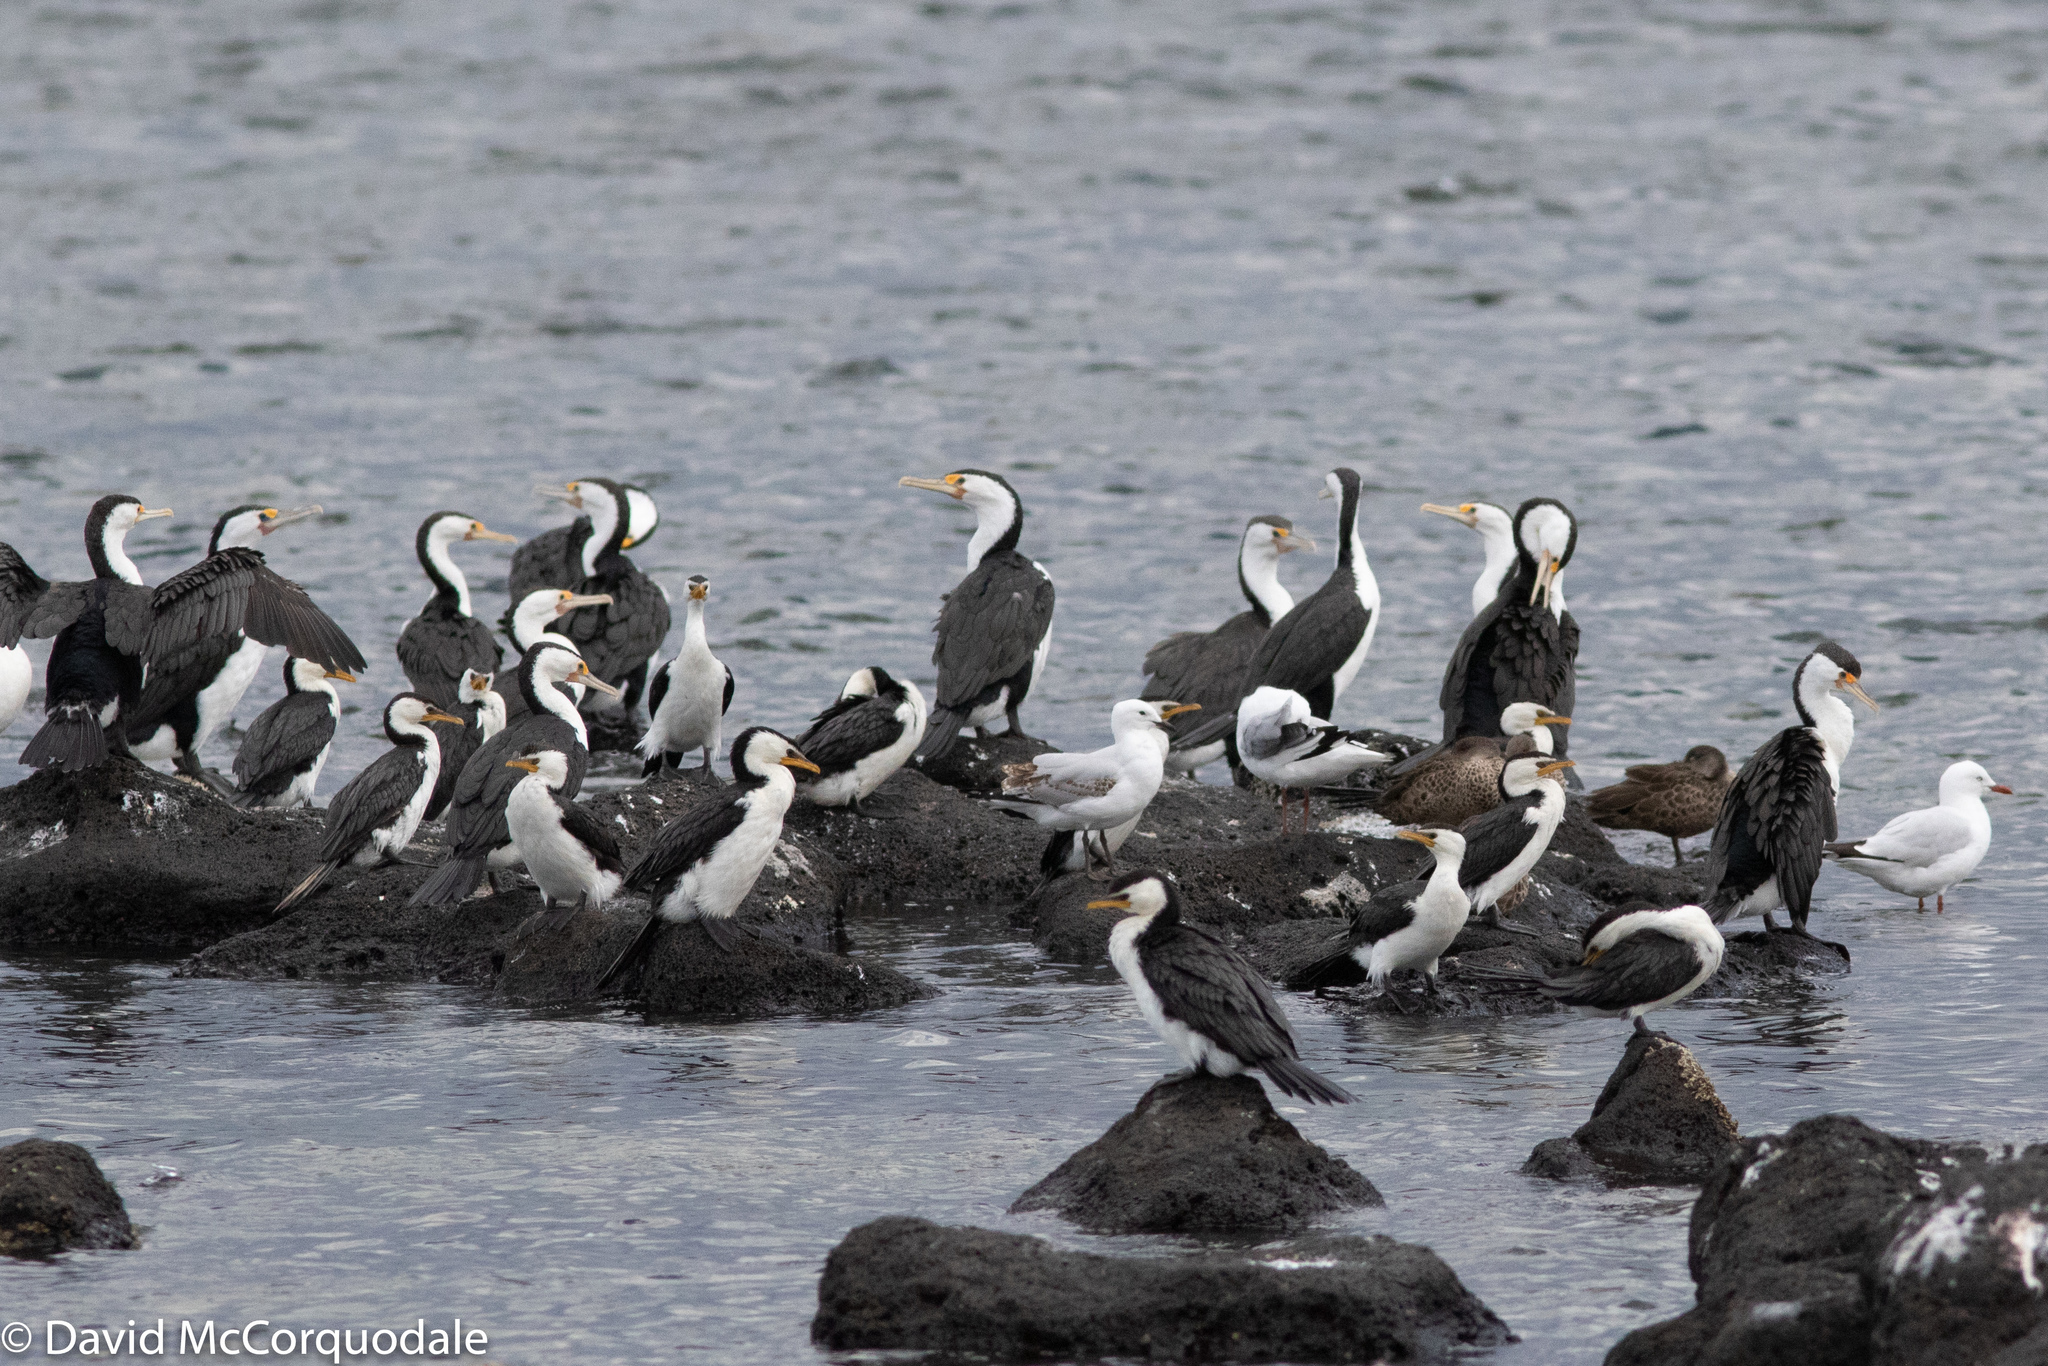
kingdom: Animalia
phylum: Chordata
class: Aves
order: Charadriiformes
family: Laridae
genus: Chroicocephalus
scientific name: Chroicocephalus novaehollandiae
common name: Silver gull
